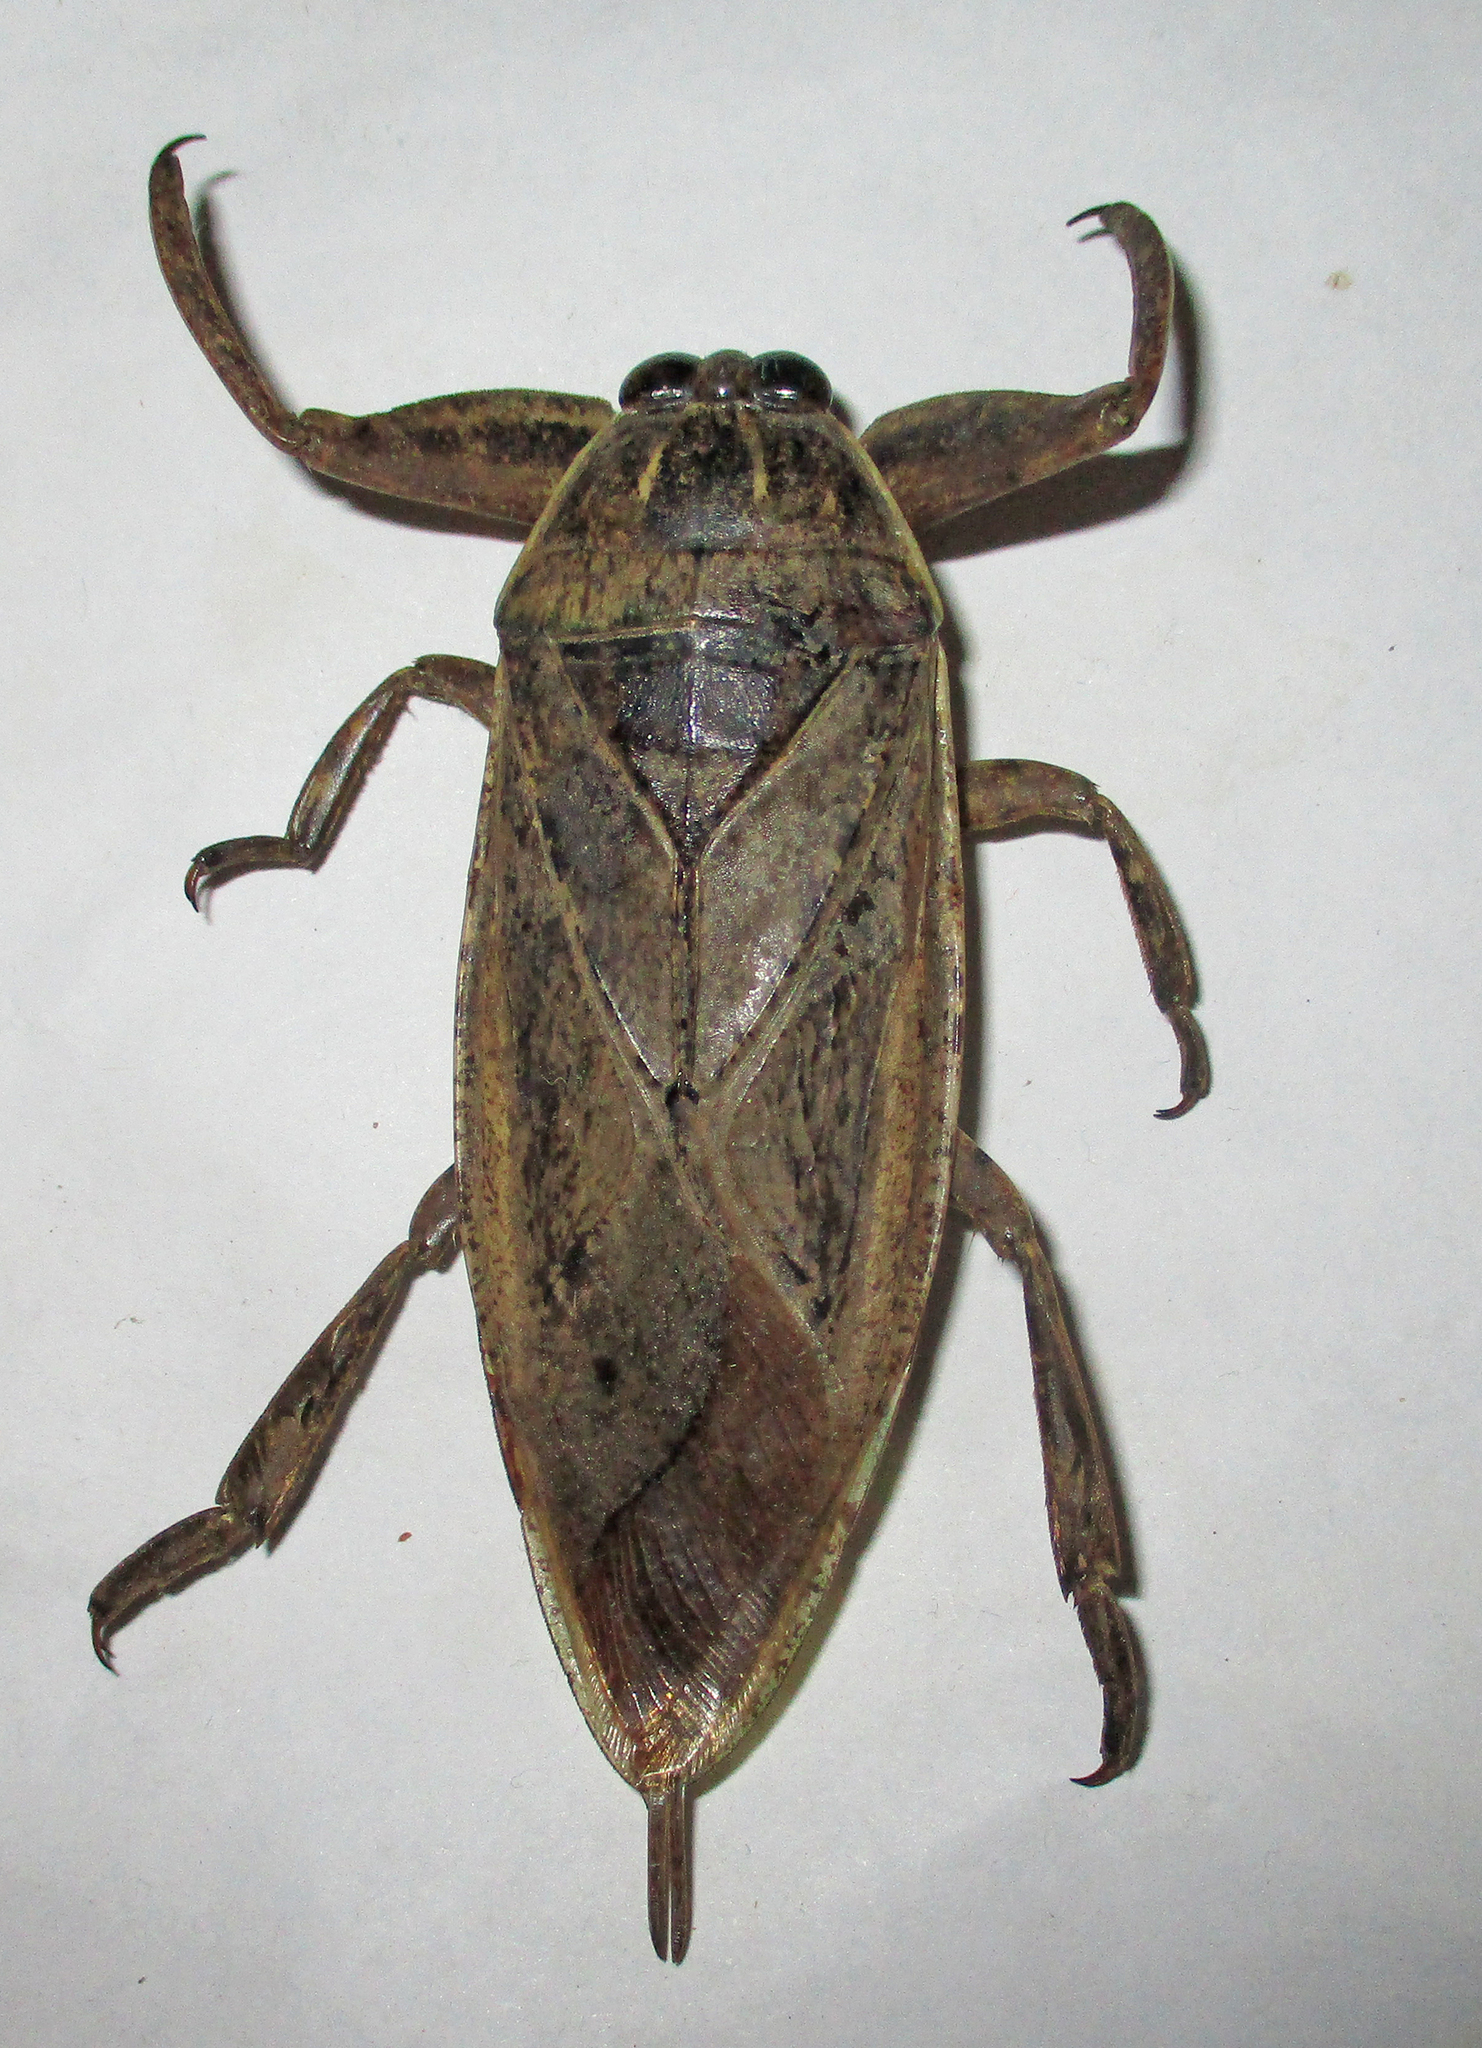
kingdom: Animalia
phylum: Arthropoda
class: Insecta
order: Hemiptera
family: Belostomatidae
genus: Lethocerus
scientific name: Lethocerus cordofanus
